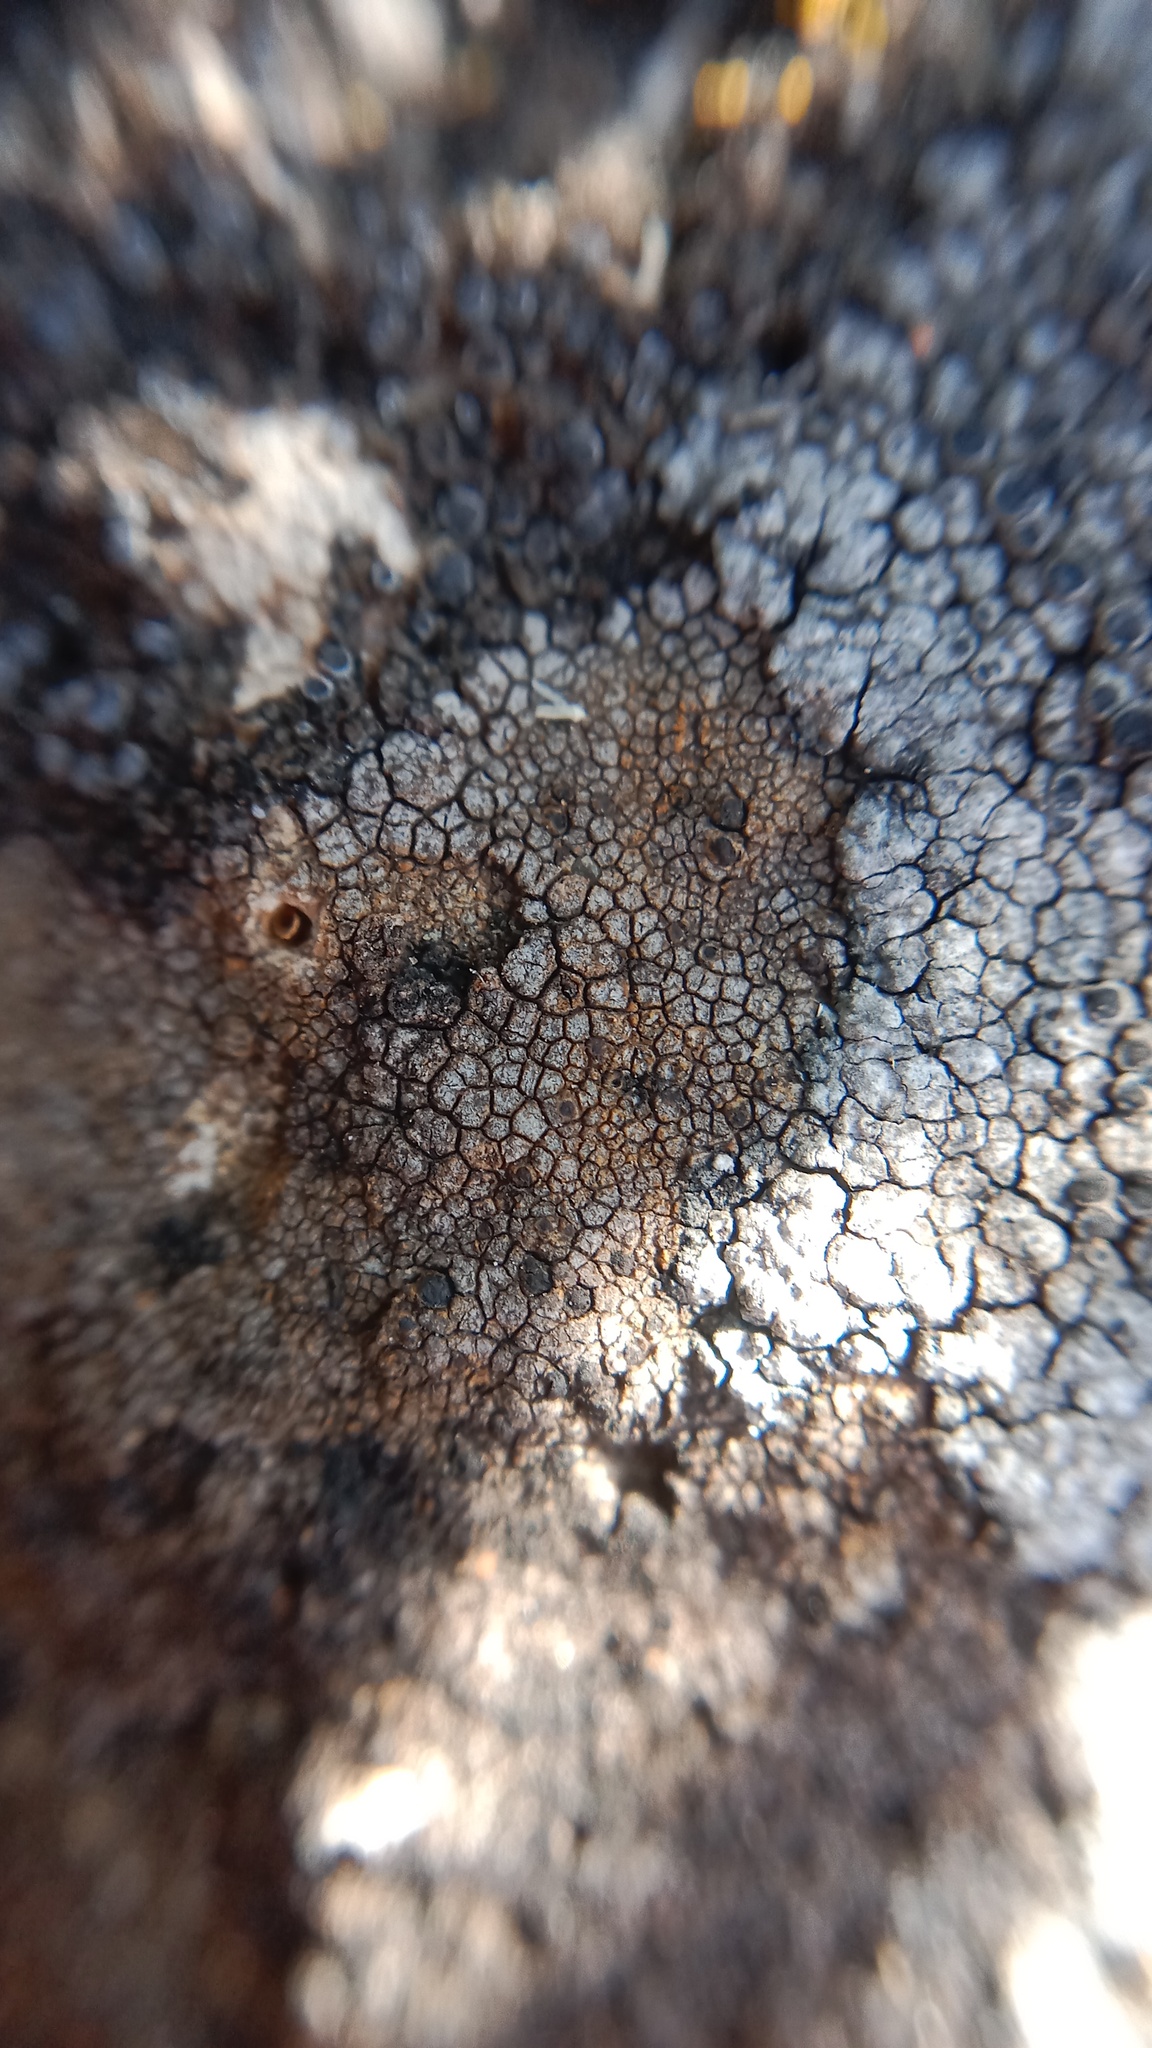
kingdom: Fungi
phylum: Ascomycota
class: Lecanoromycetes
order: Teloschistales
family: Teloschistaceae
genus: Pyrenodesmia
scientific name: Pyrenodesmia variabilis
